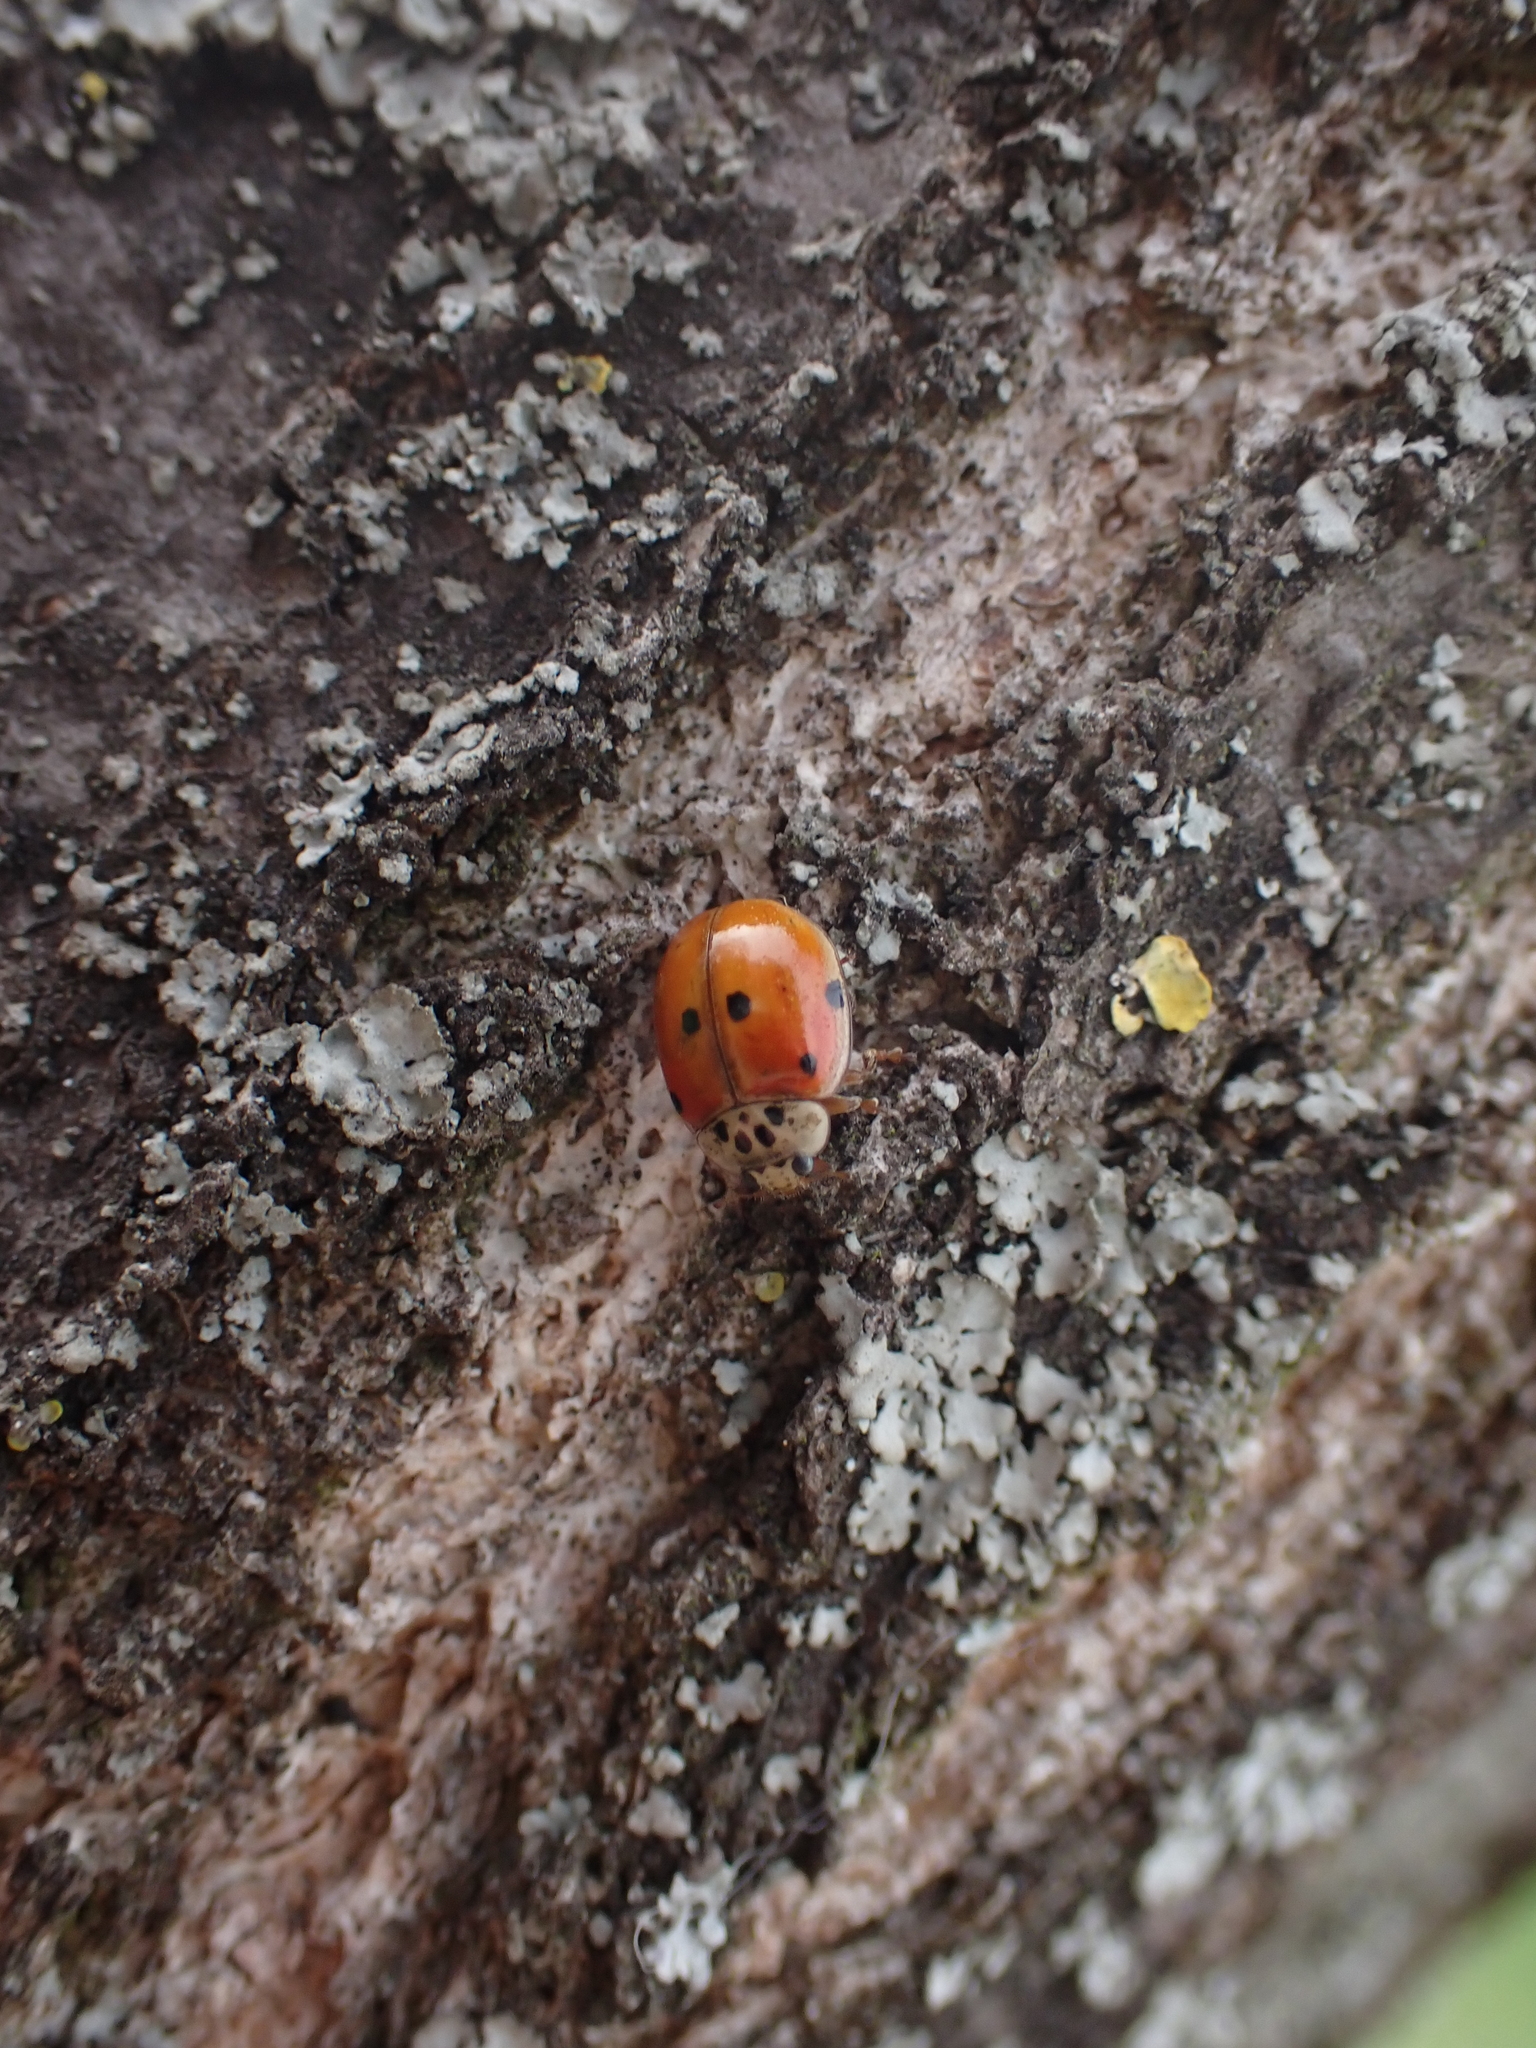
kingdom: Animalia
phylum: Arthropoda
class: Insecta
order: Coleoptera
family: Coccinellidae
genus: Adalia
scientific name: Adalia decempunctata
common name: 10-spot ladybird
